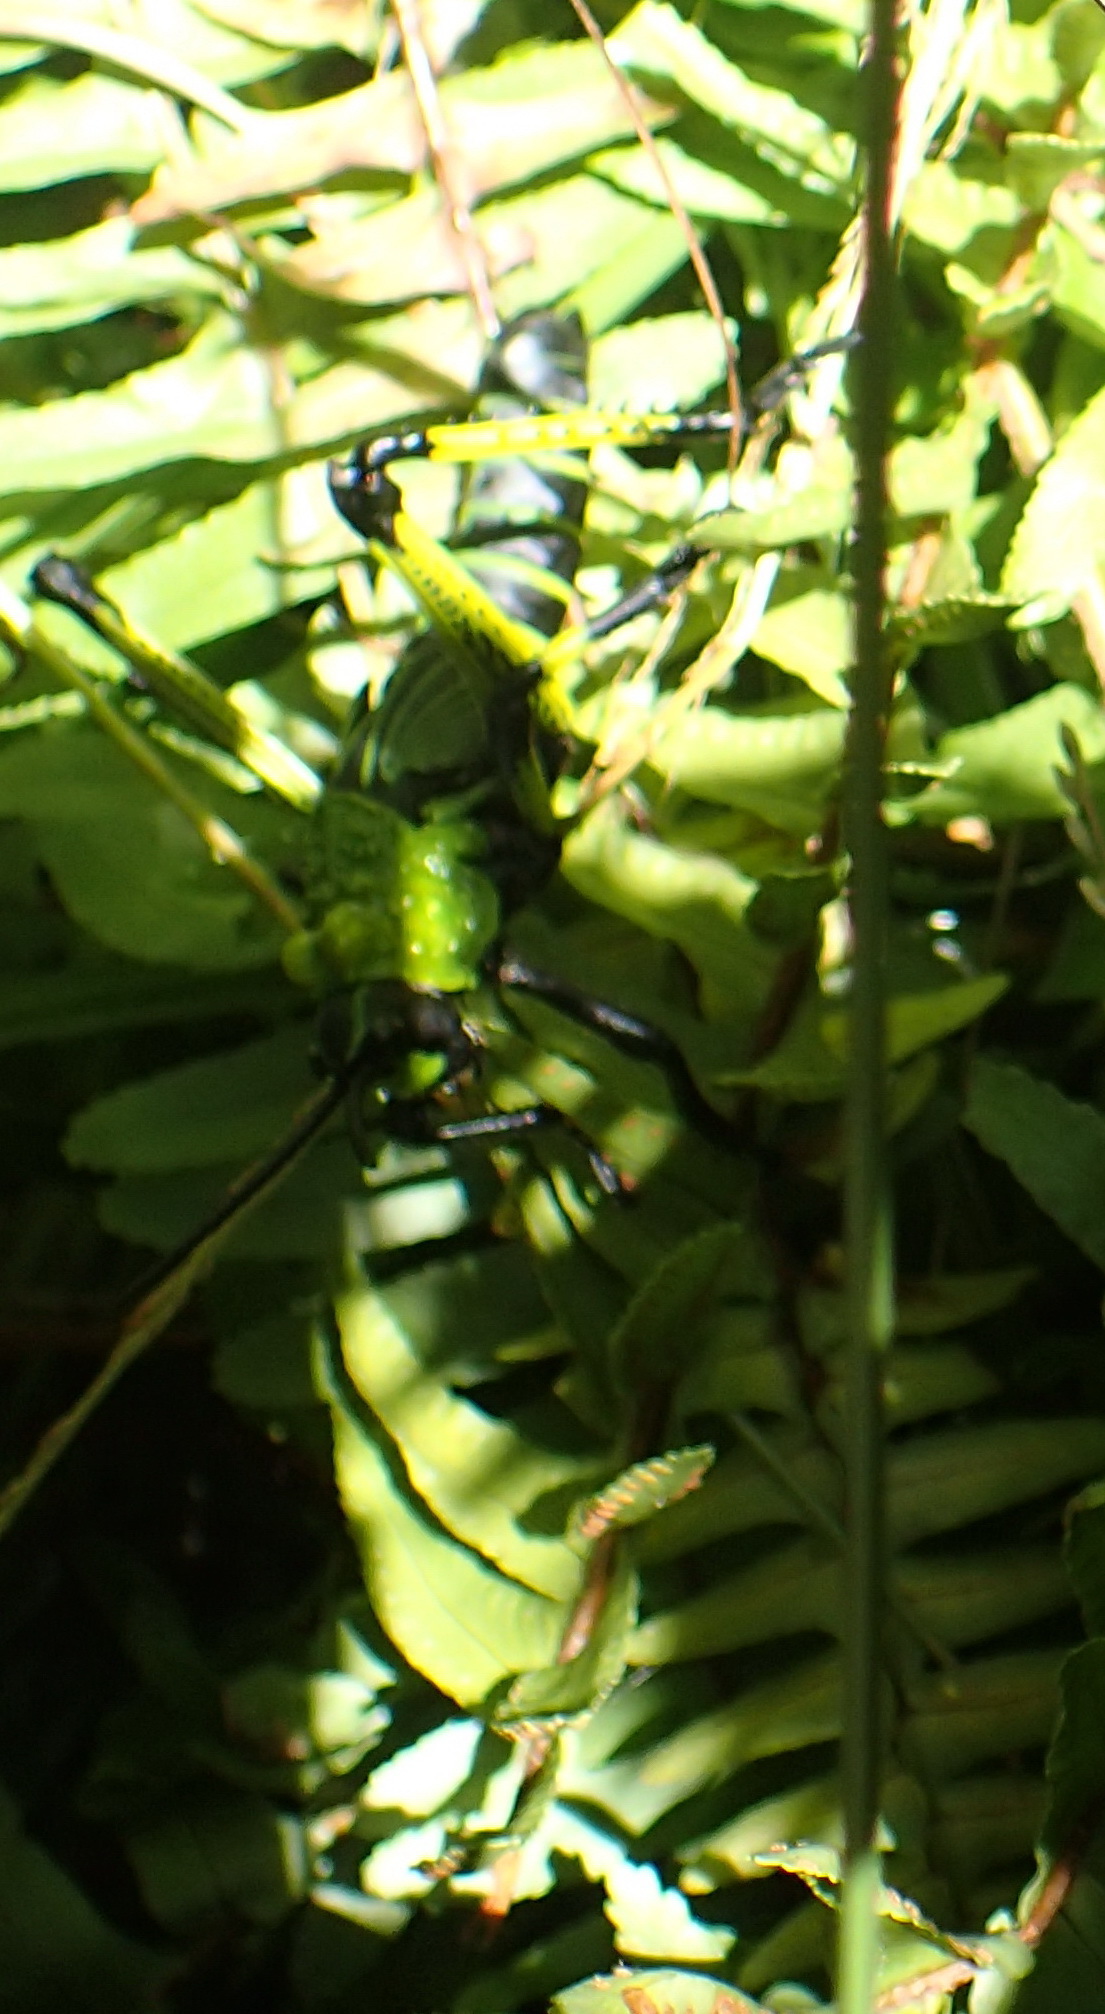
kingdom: Animalia
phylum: Arthropoda
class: Insecta
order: Orthoptera
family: Pyrgomorphidae
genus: Phymateus
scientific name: Phymateus leprosus
